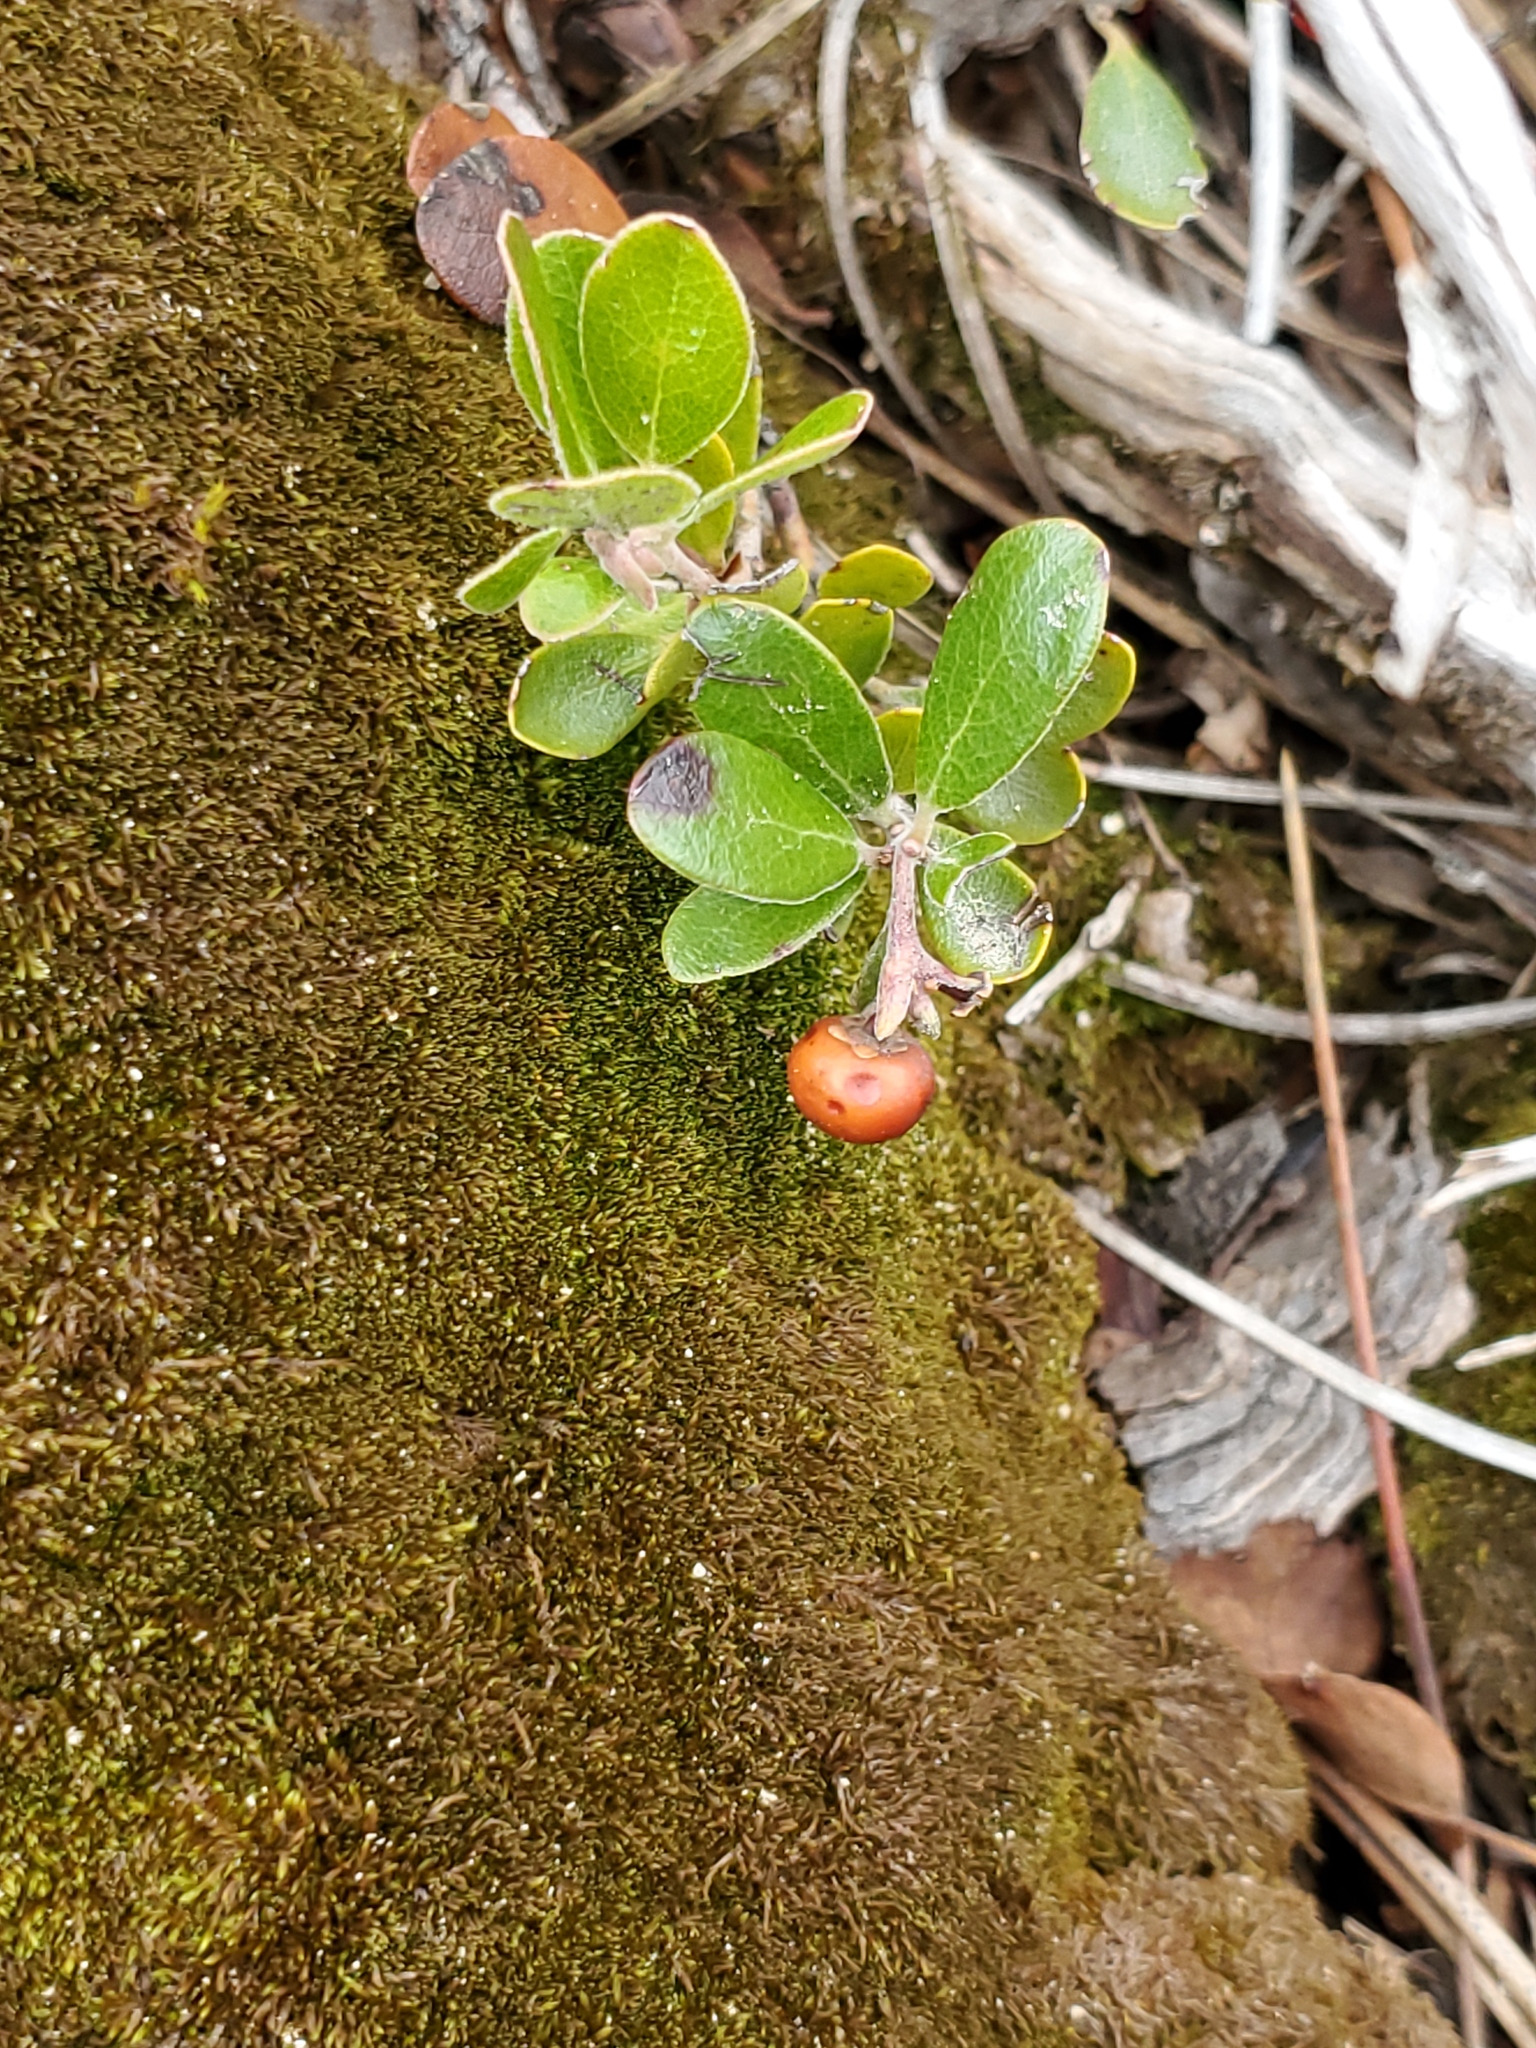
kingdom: Plantae
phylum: Tracheophyta
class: Magnoliopsida
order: Ericales
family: Ericaceae
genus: Arctostaphylos
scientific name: Arctostaphylos uva-ursi
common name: Bearberry
